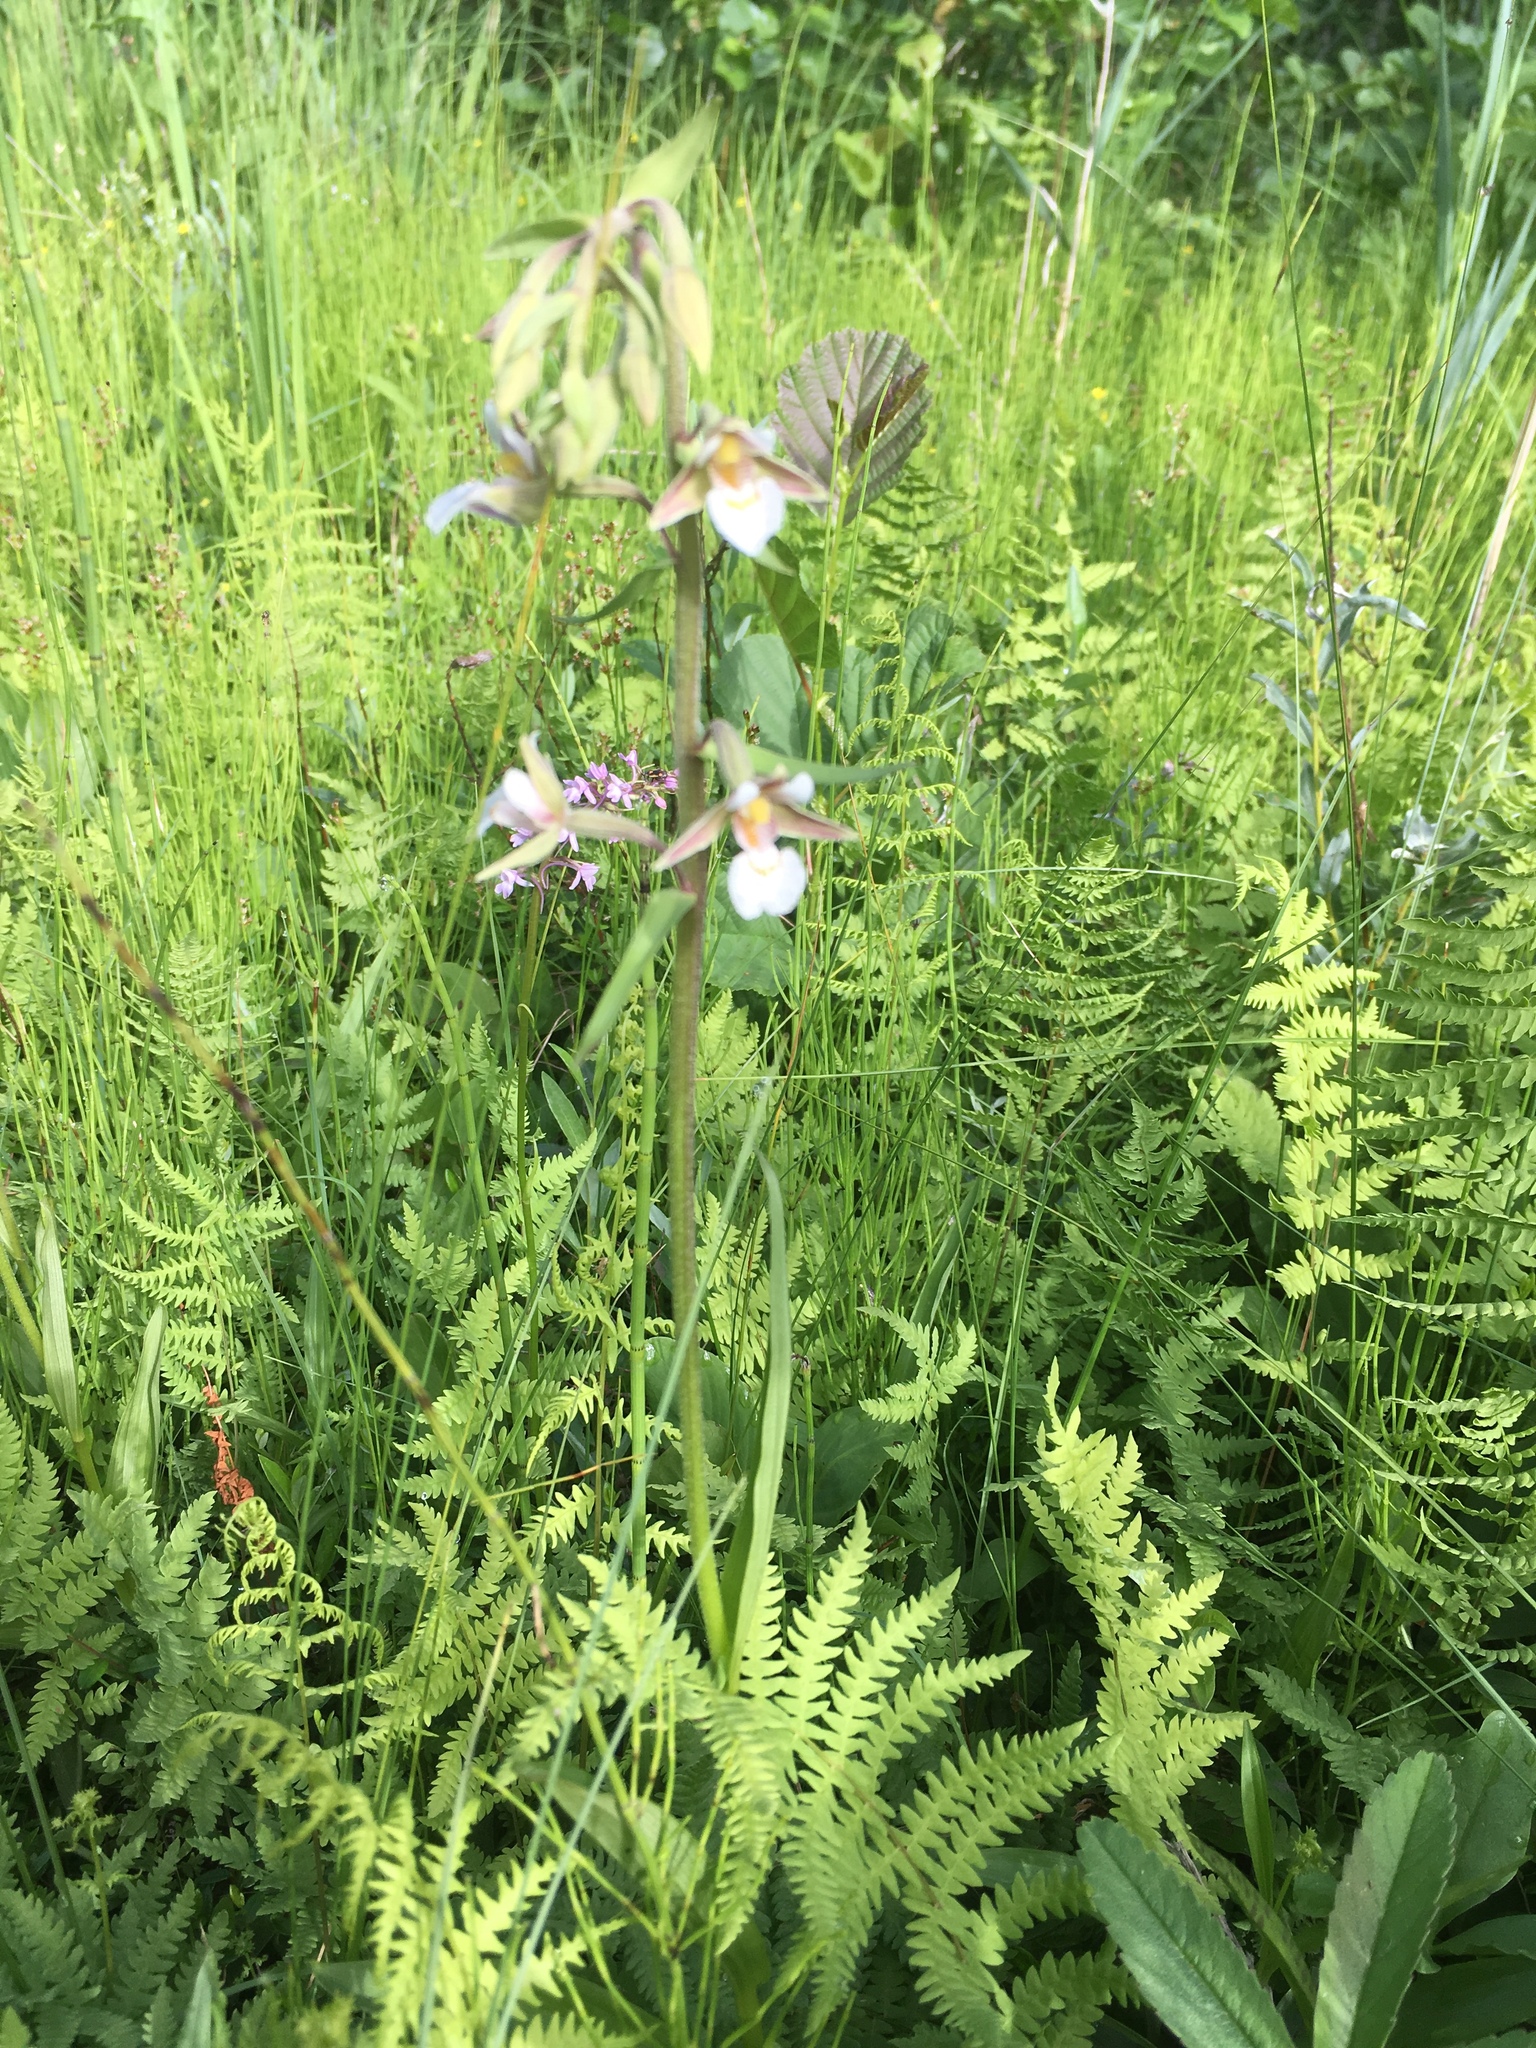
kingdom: Plantae
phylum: Tracheophyta
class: Liliopsida
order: Asparagales
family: Orchidaceae
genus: Epipactis
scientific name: Epipactis palustris
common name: Marsh helleborine
